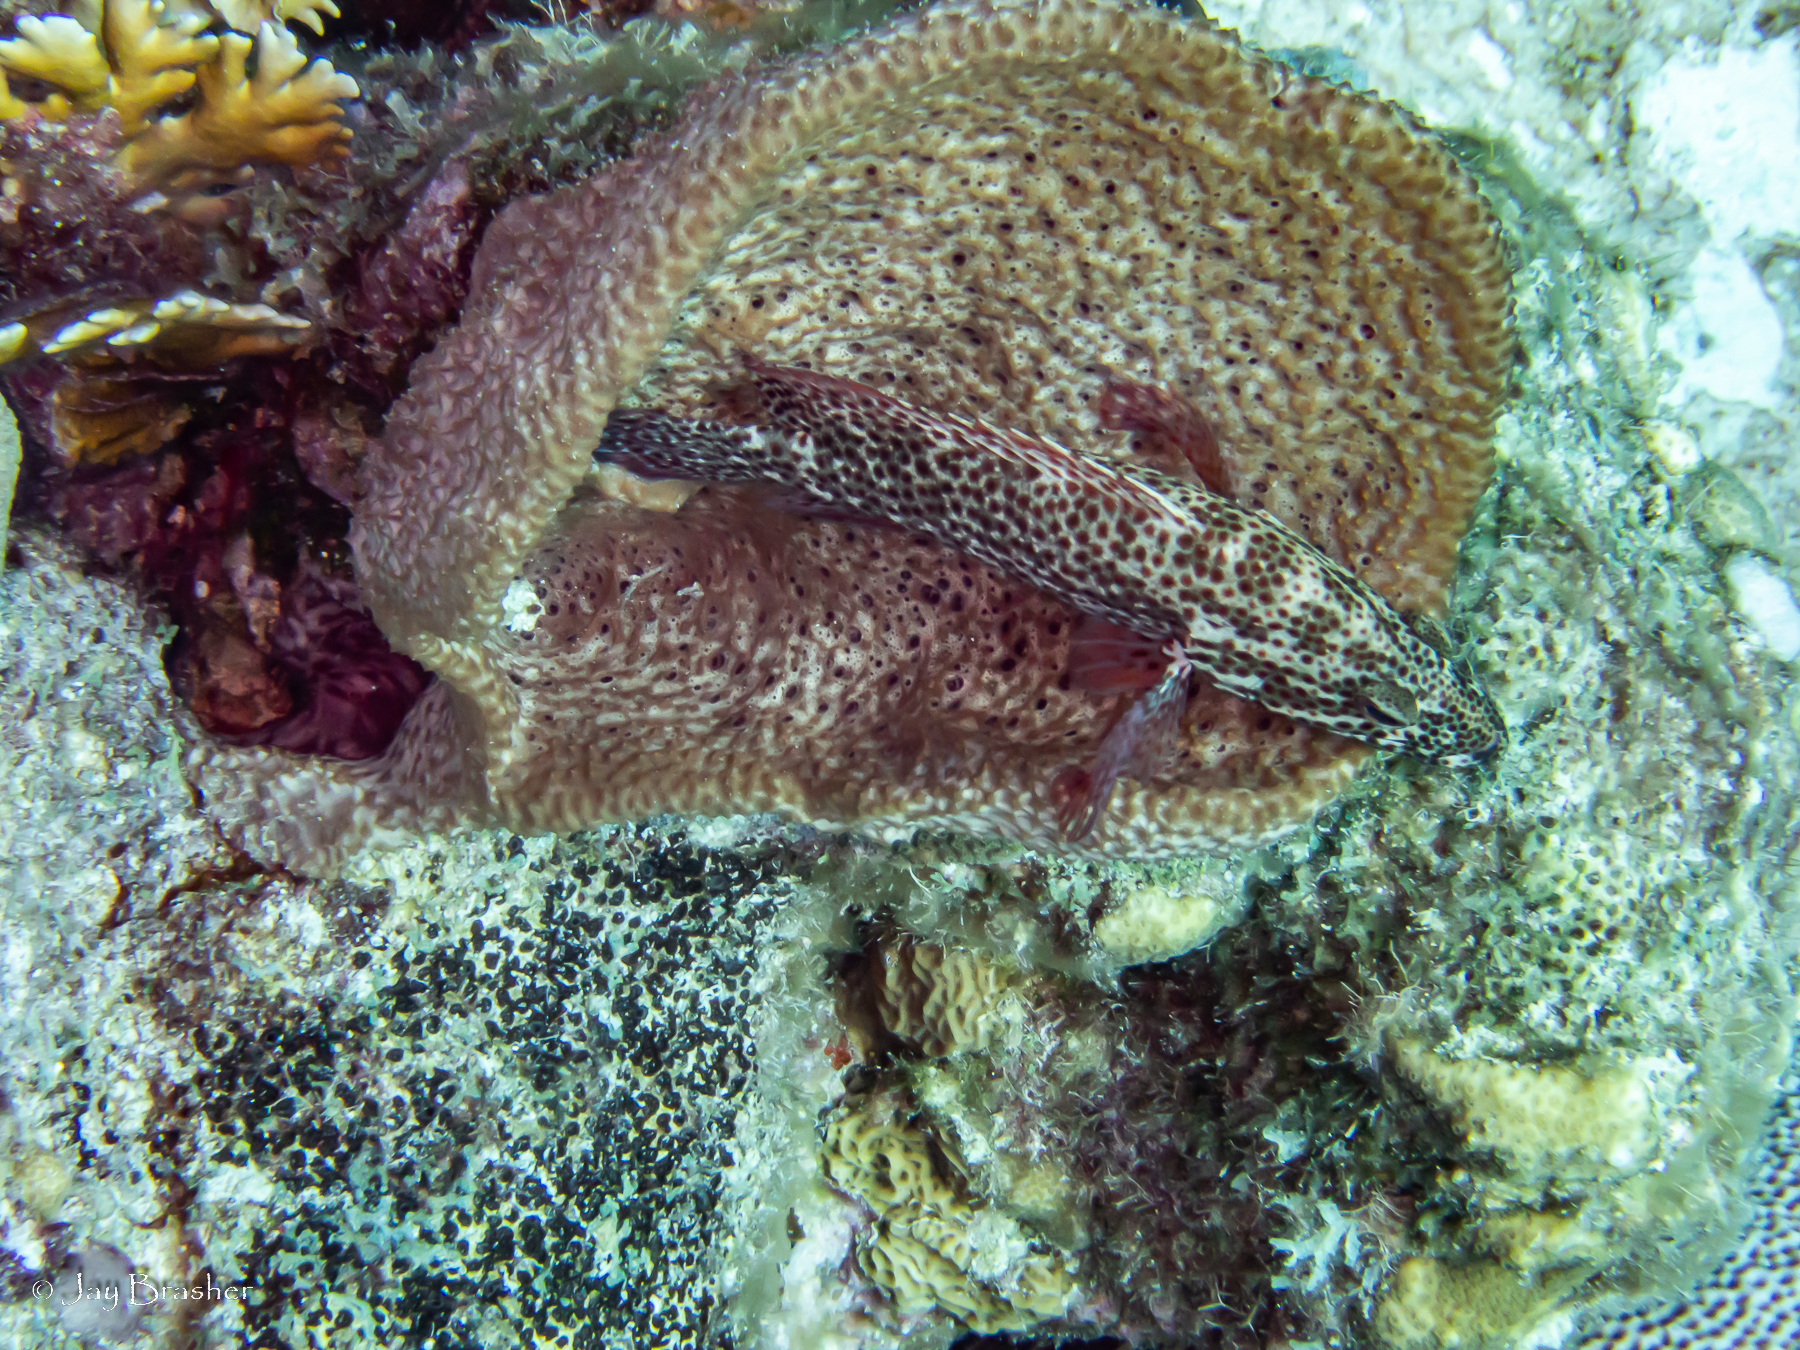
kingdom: Animalia
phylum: Chordata
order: Perciformes
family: Serranidae
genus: Cephalopholis
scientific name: Cephalopholis cruentata
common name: Graysby
